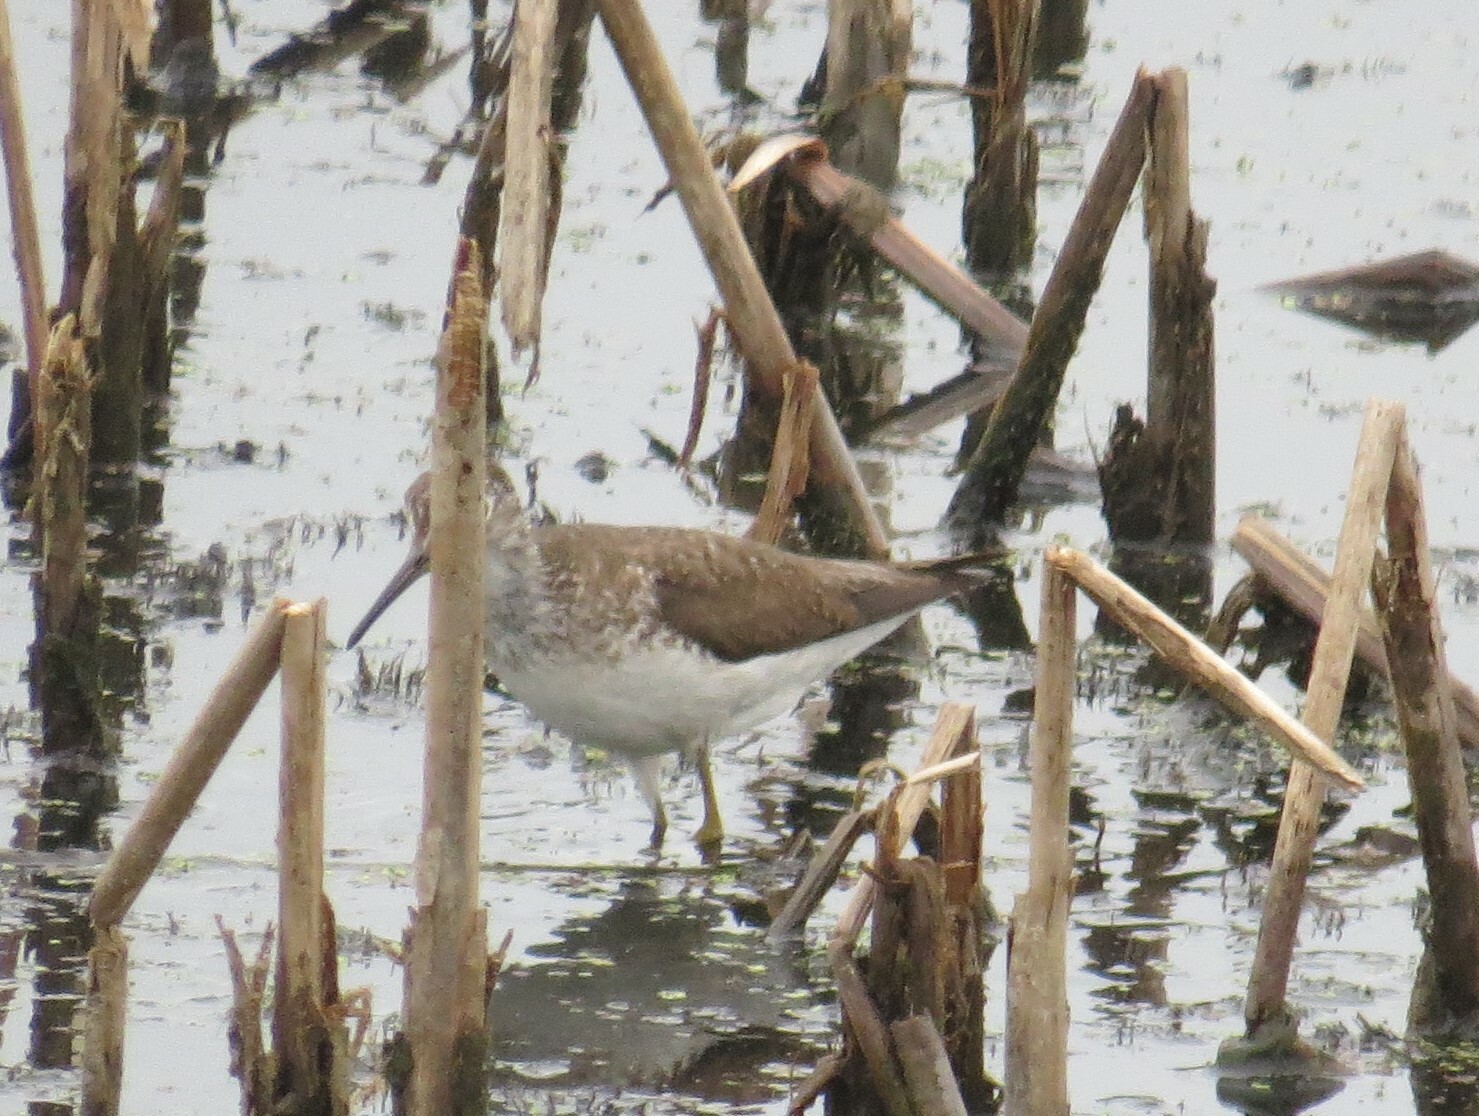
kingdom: Animalia
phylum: Chordata
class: Aves
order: Charadriiformes
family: Scolopacidae
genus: Tringa
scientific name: Tringa solitaria
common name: Solitary sandpiper
